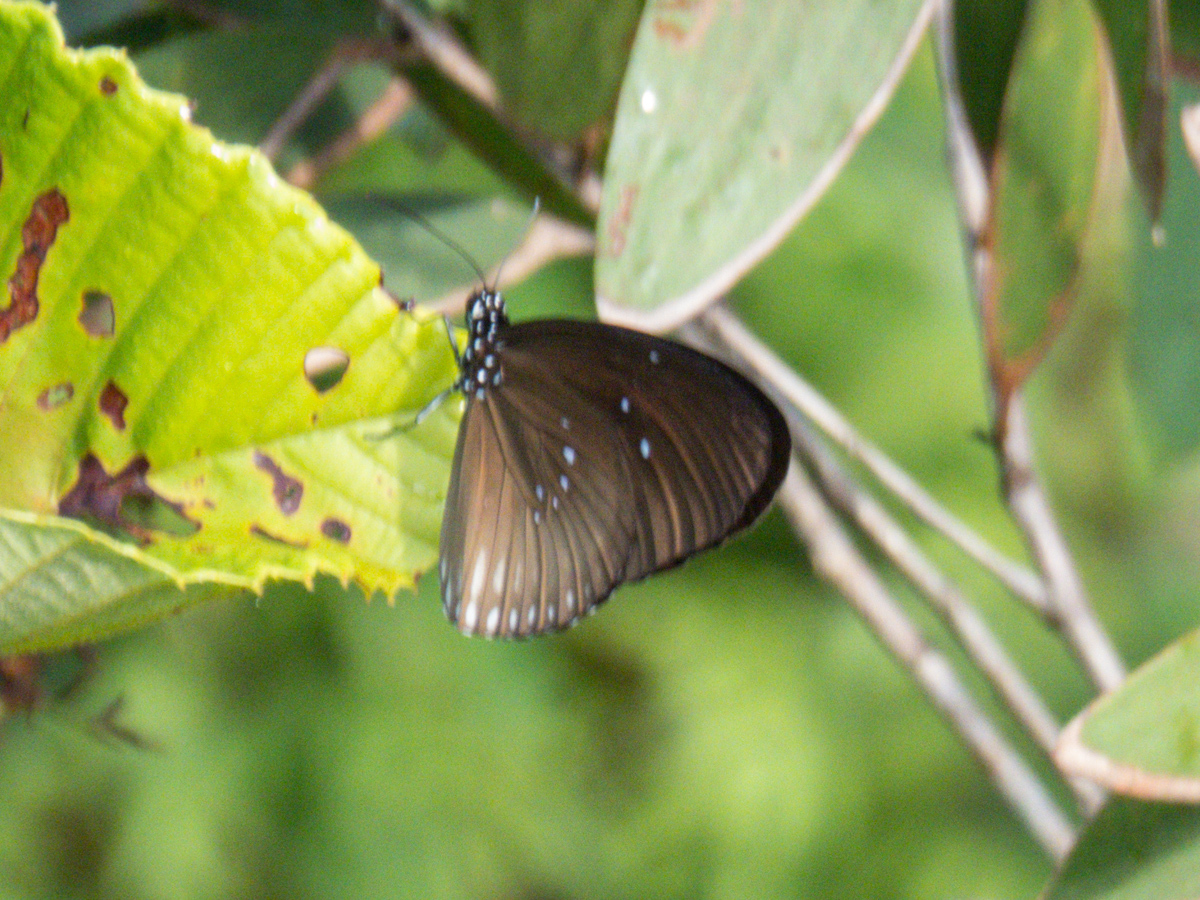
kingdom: Animalia
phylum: Arthropoda
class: Insecta
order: Lepidoptera
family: Nymphalidae
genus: Euploea
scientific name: Euploea eyndhovii
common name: Striped black crow butterfly
